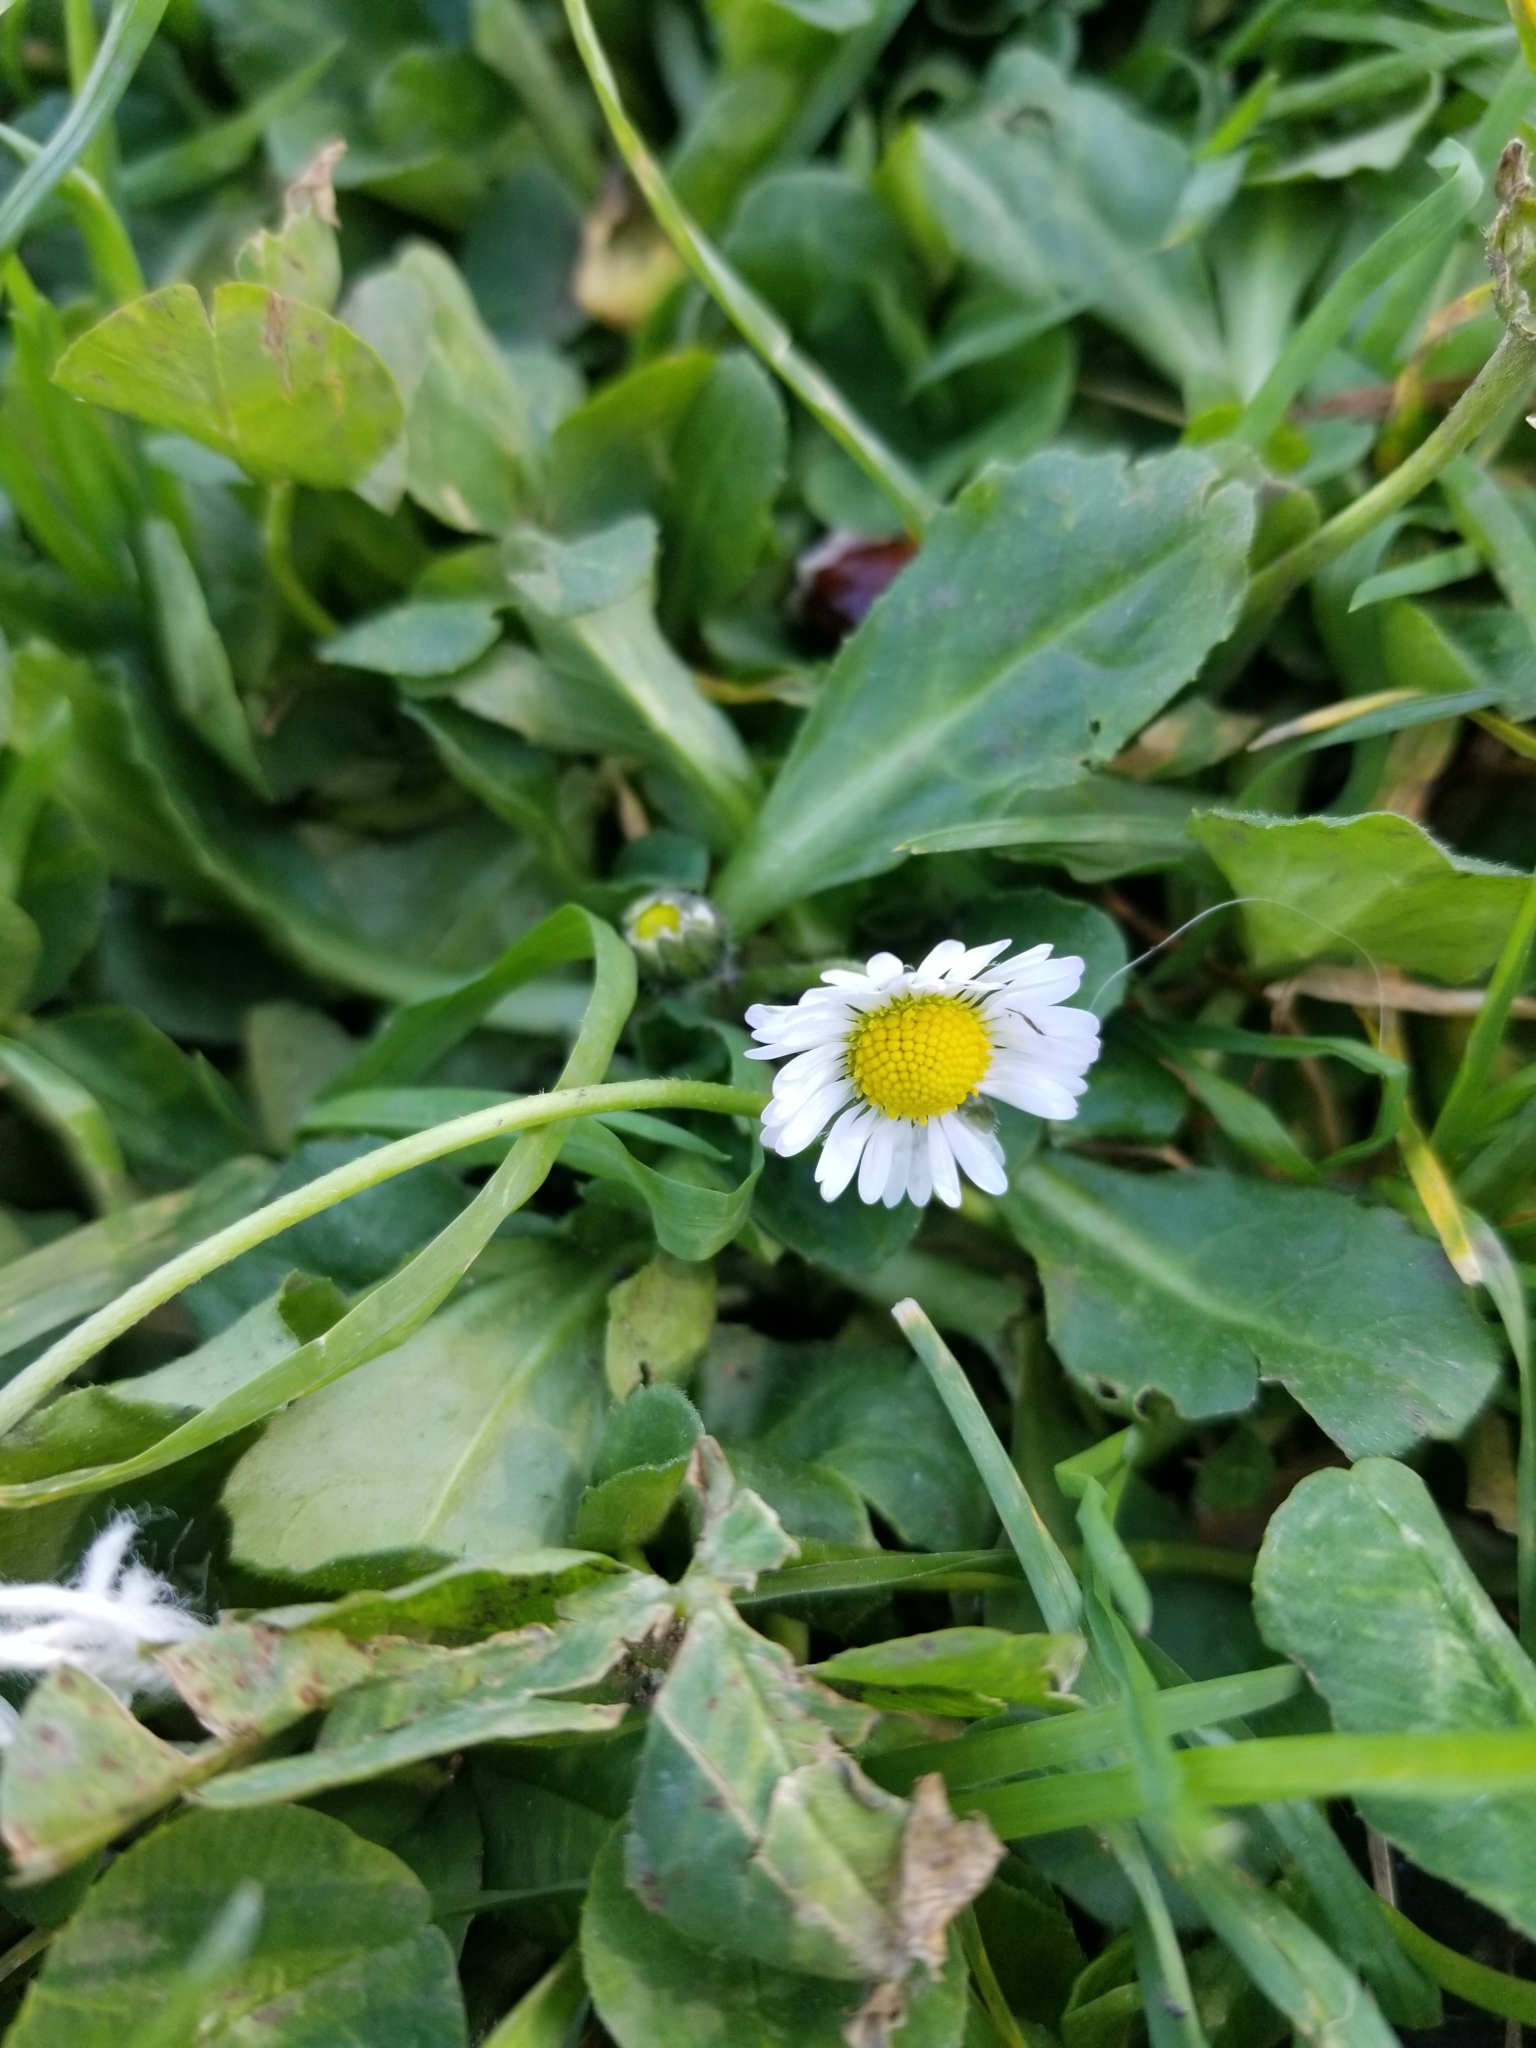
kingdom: Plantae
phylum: Tracheophyta
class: Magnoliopsida
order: Asterales
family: Asteraceae
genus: Bellis
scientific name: Bellis perennis
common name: Lawndaisy
